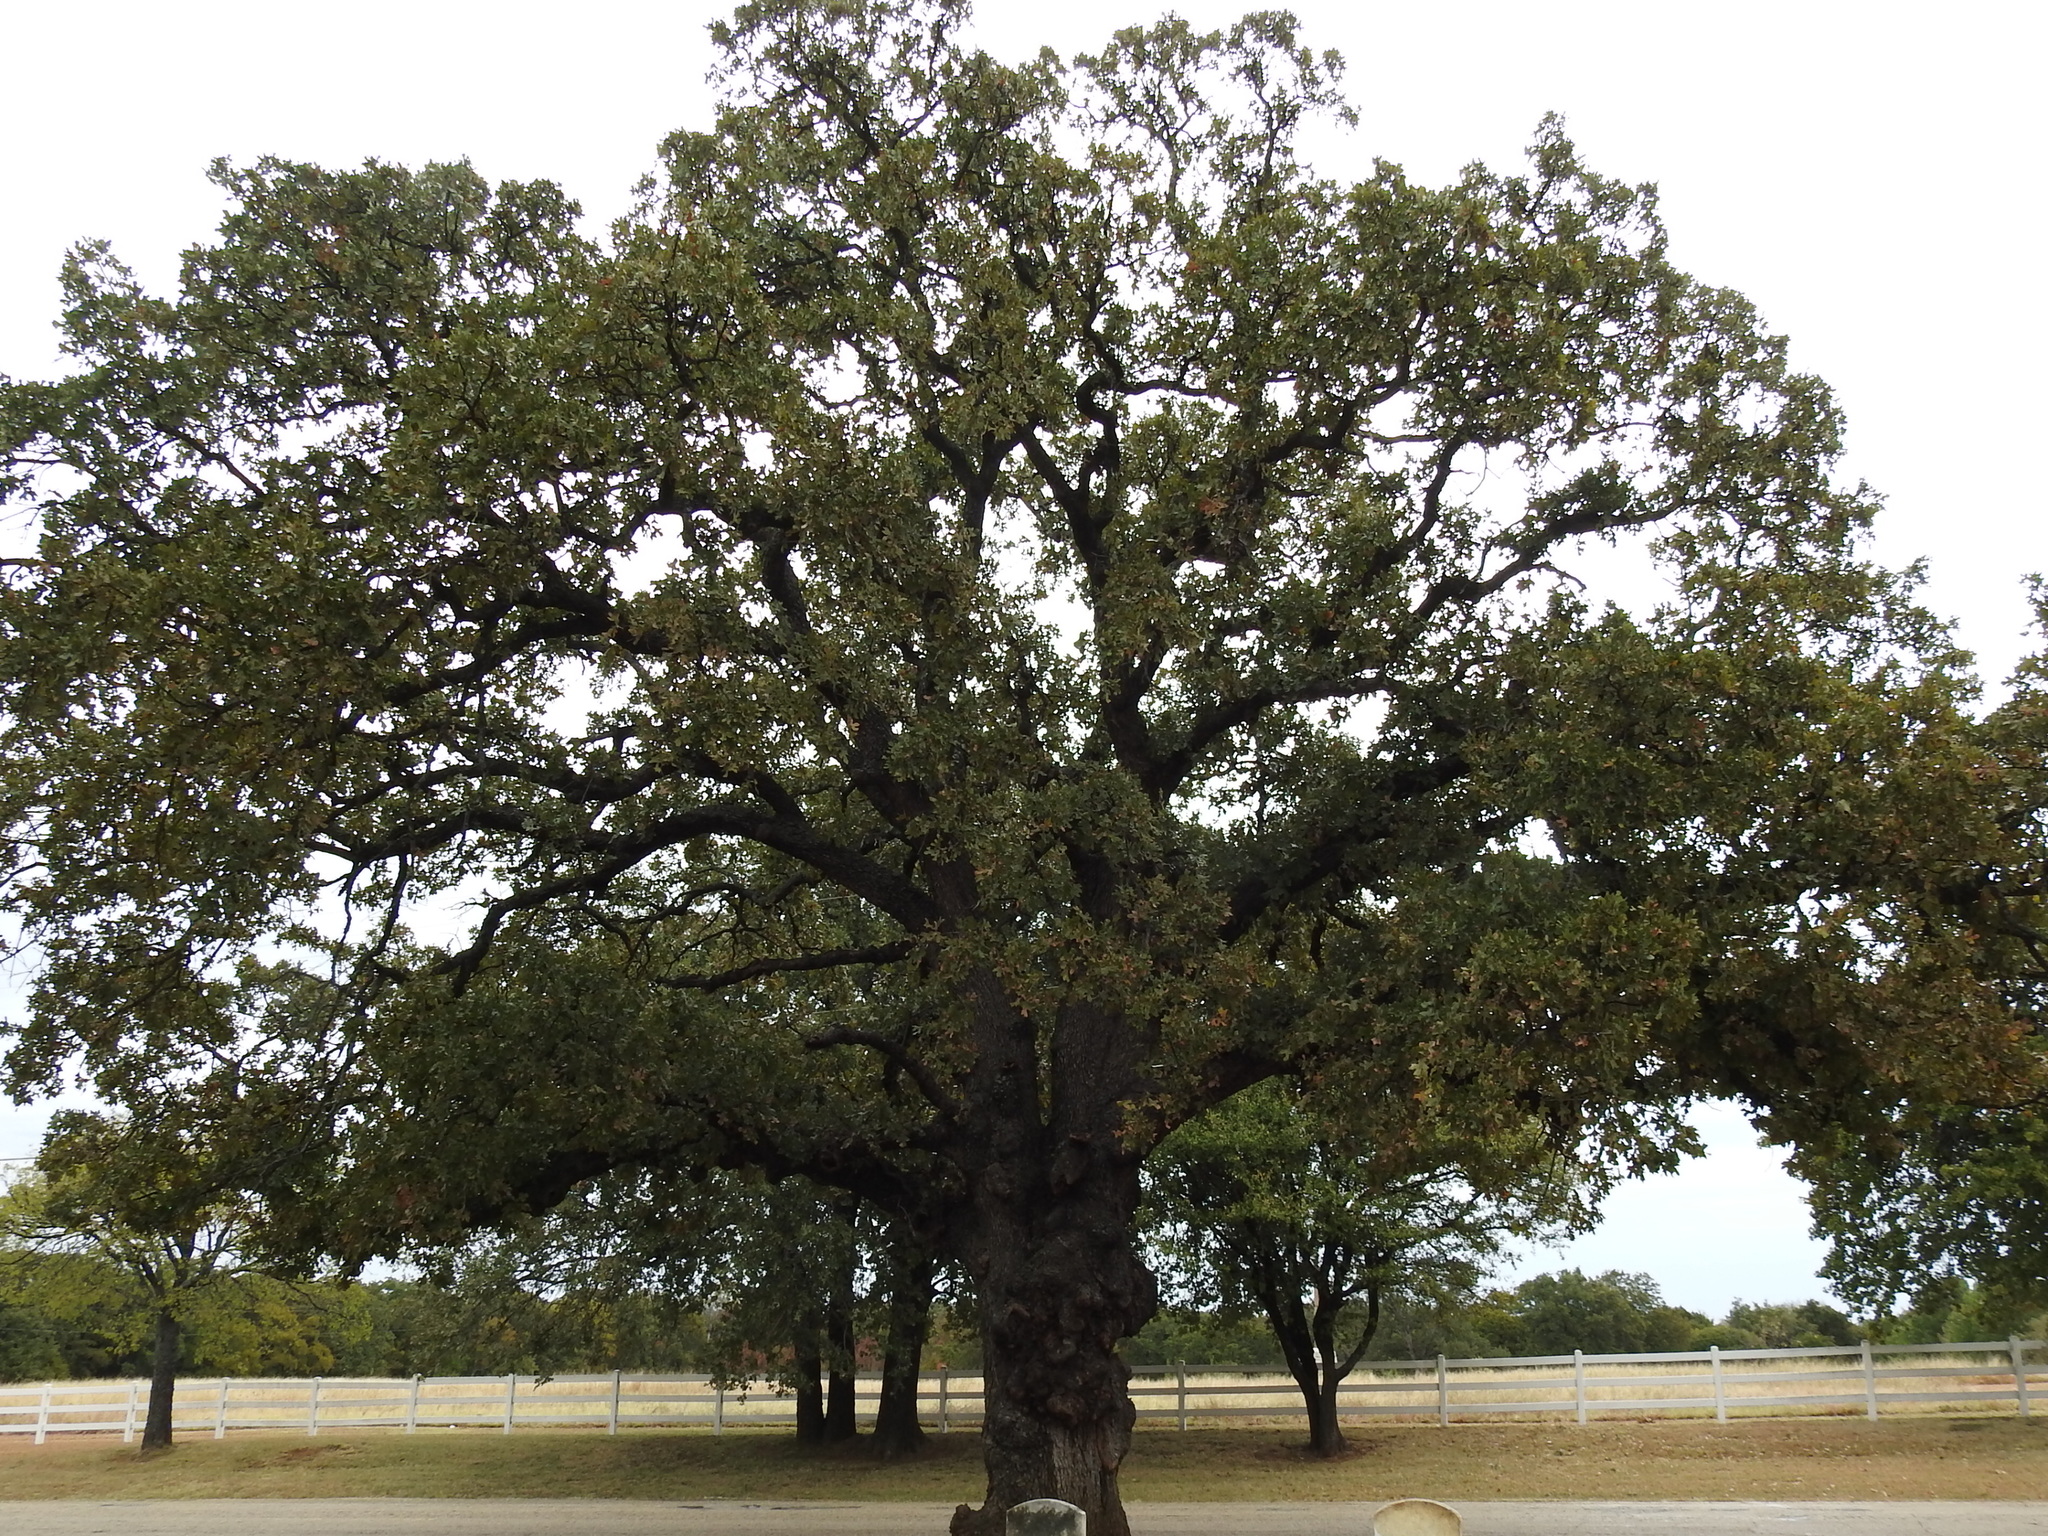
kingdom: Plantae
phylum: Tracheophyta
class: Magnoliopsida
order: Fagales
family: Fagaceae
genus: Quercus
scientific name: Quercus stellata
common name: Post oak
